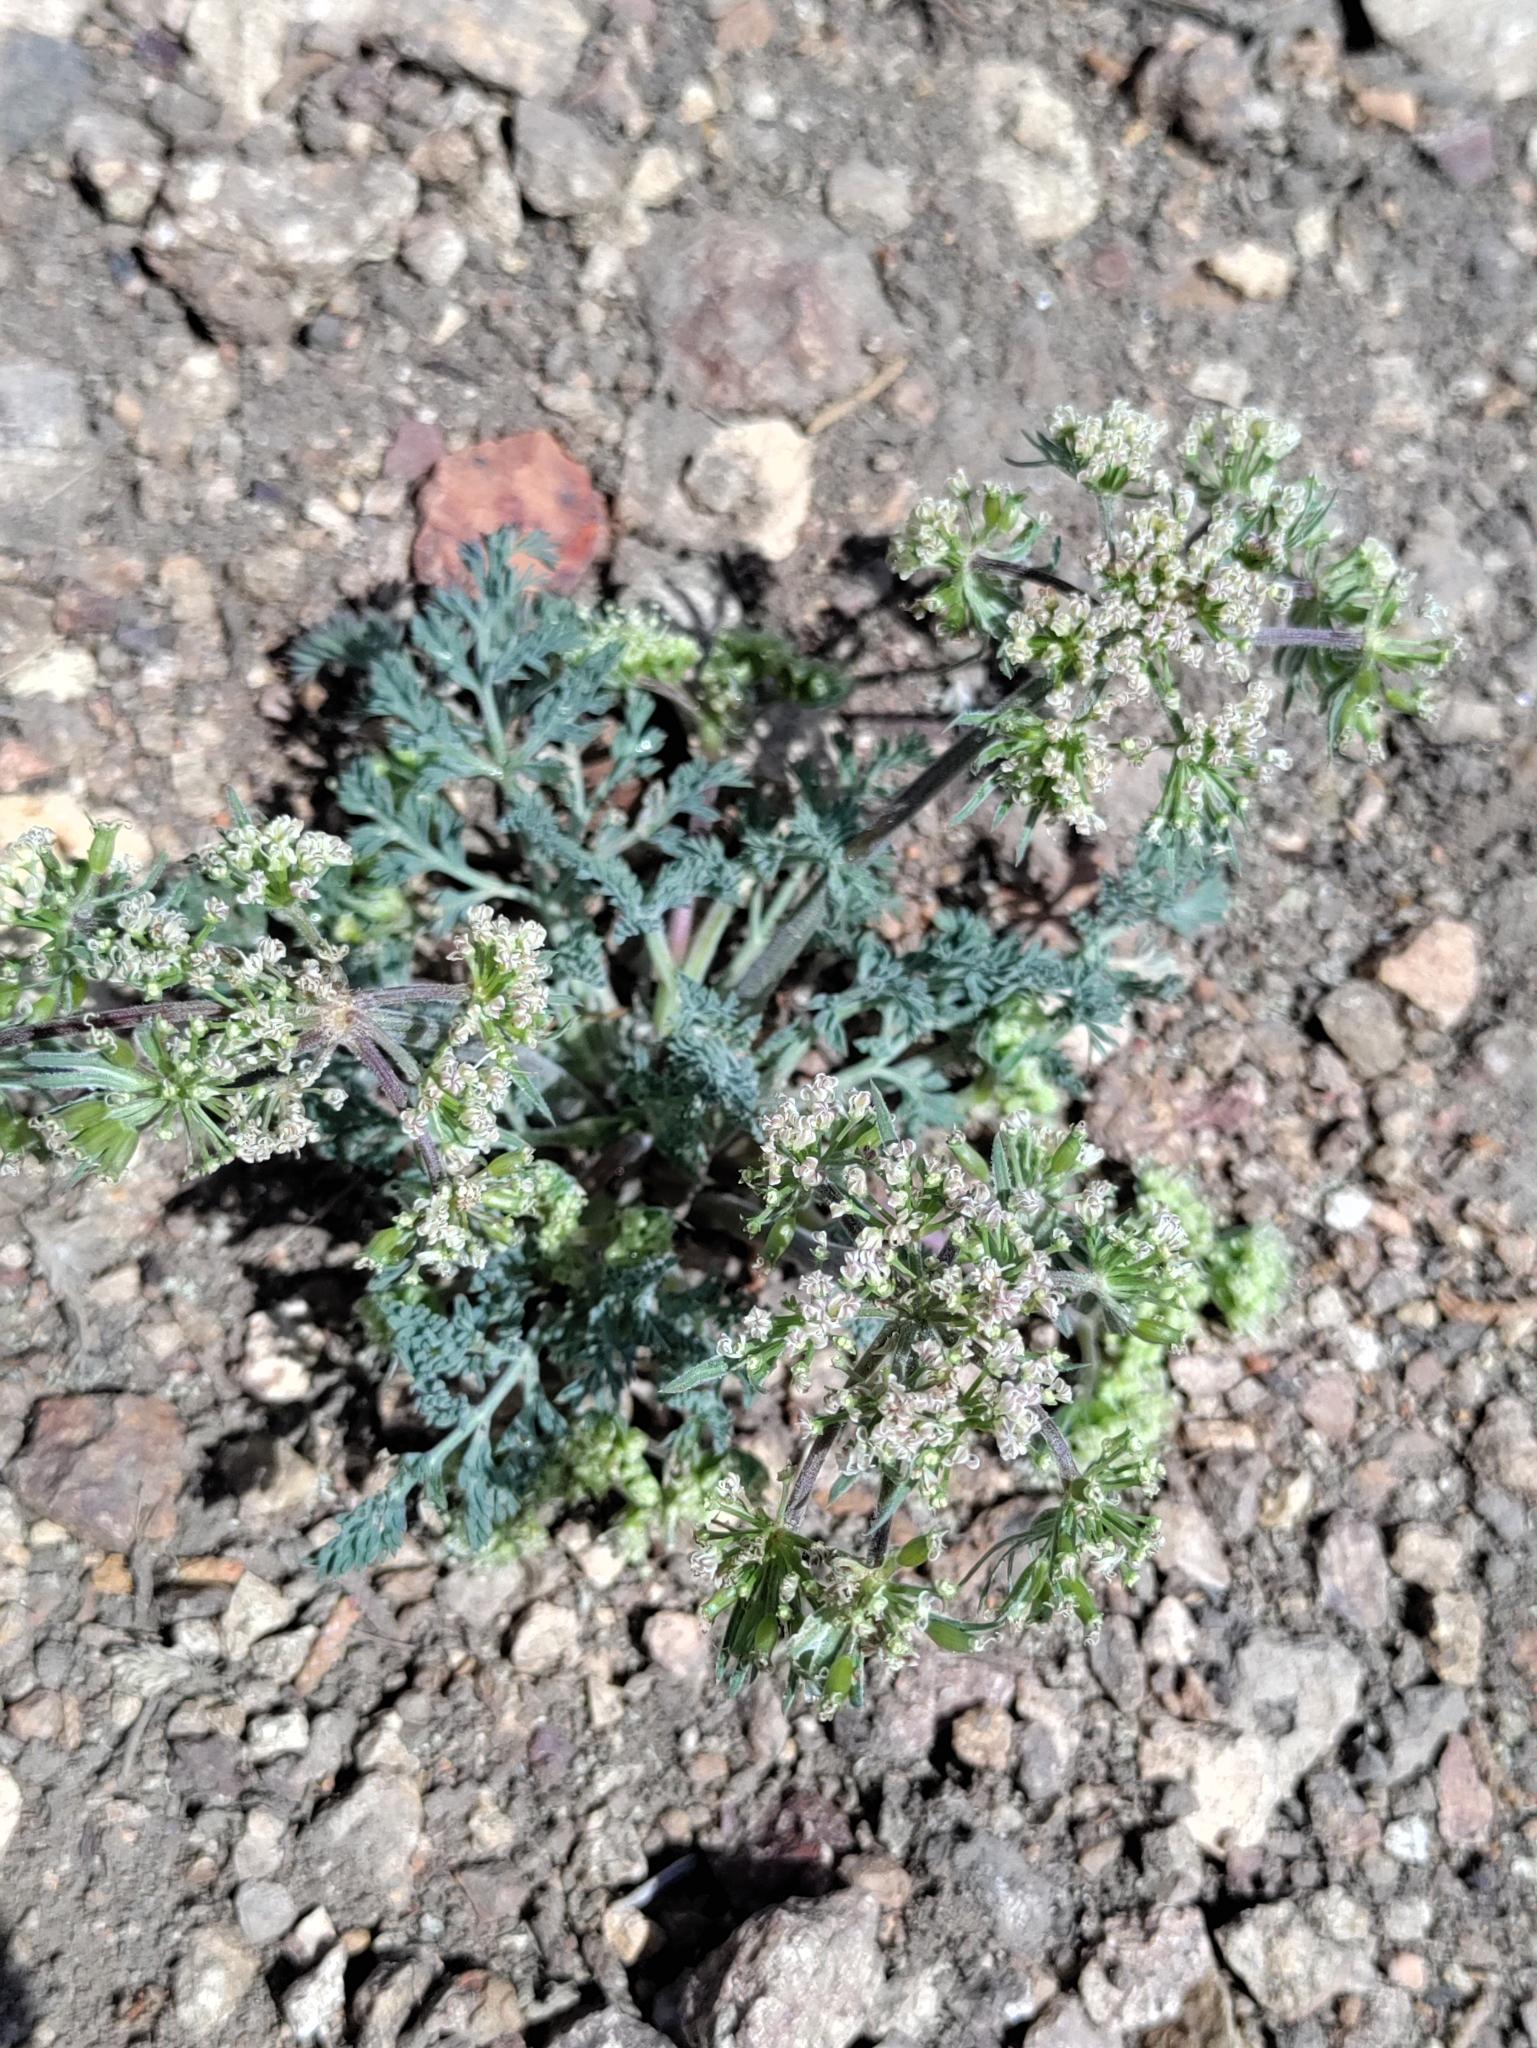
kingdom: Plantae
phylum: Tracheophyta
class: Magnoliopsida
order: Apiales
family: Apiaceae
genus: Lomatium
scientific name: Lomatium macrocarpum
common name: Big-seed biscuitroot
